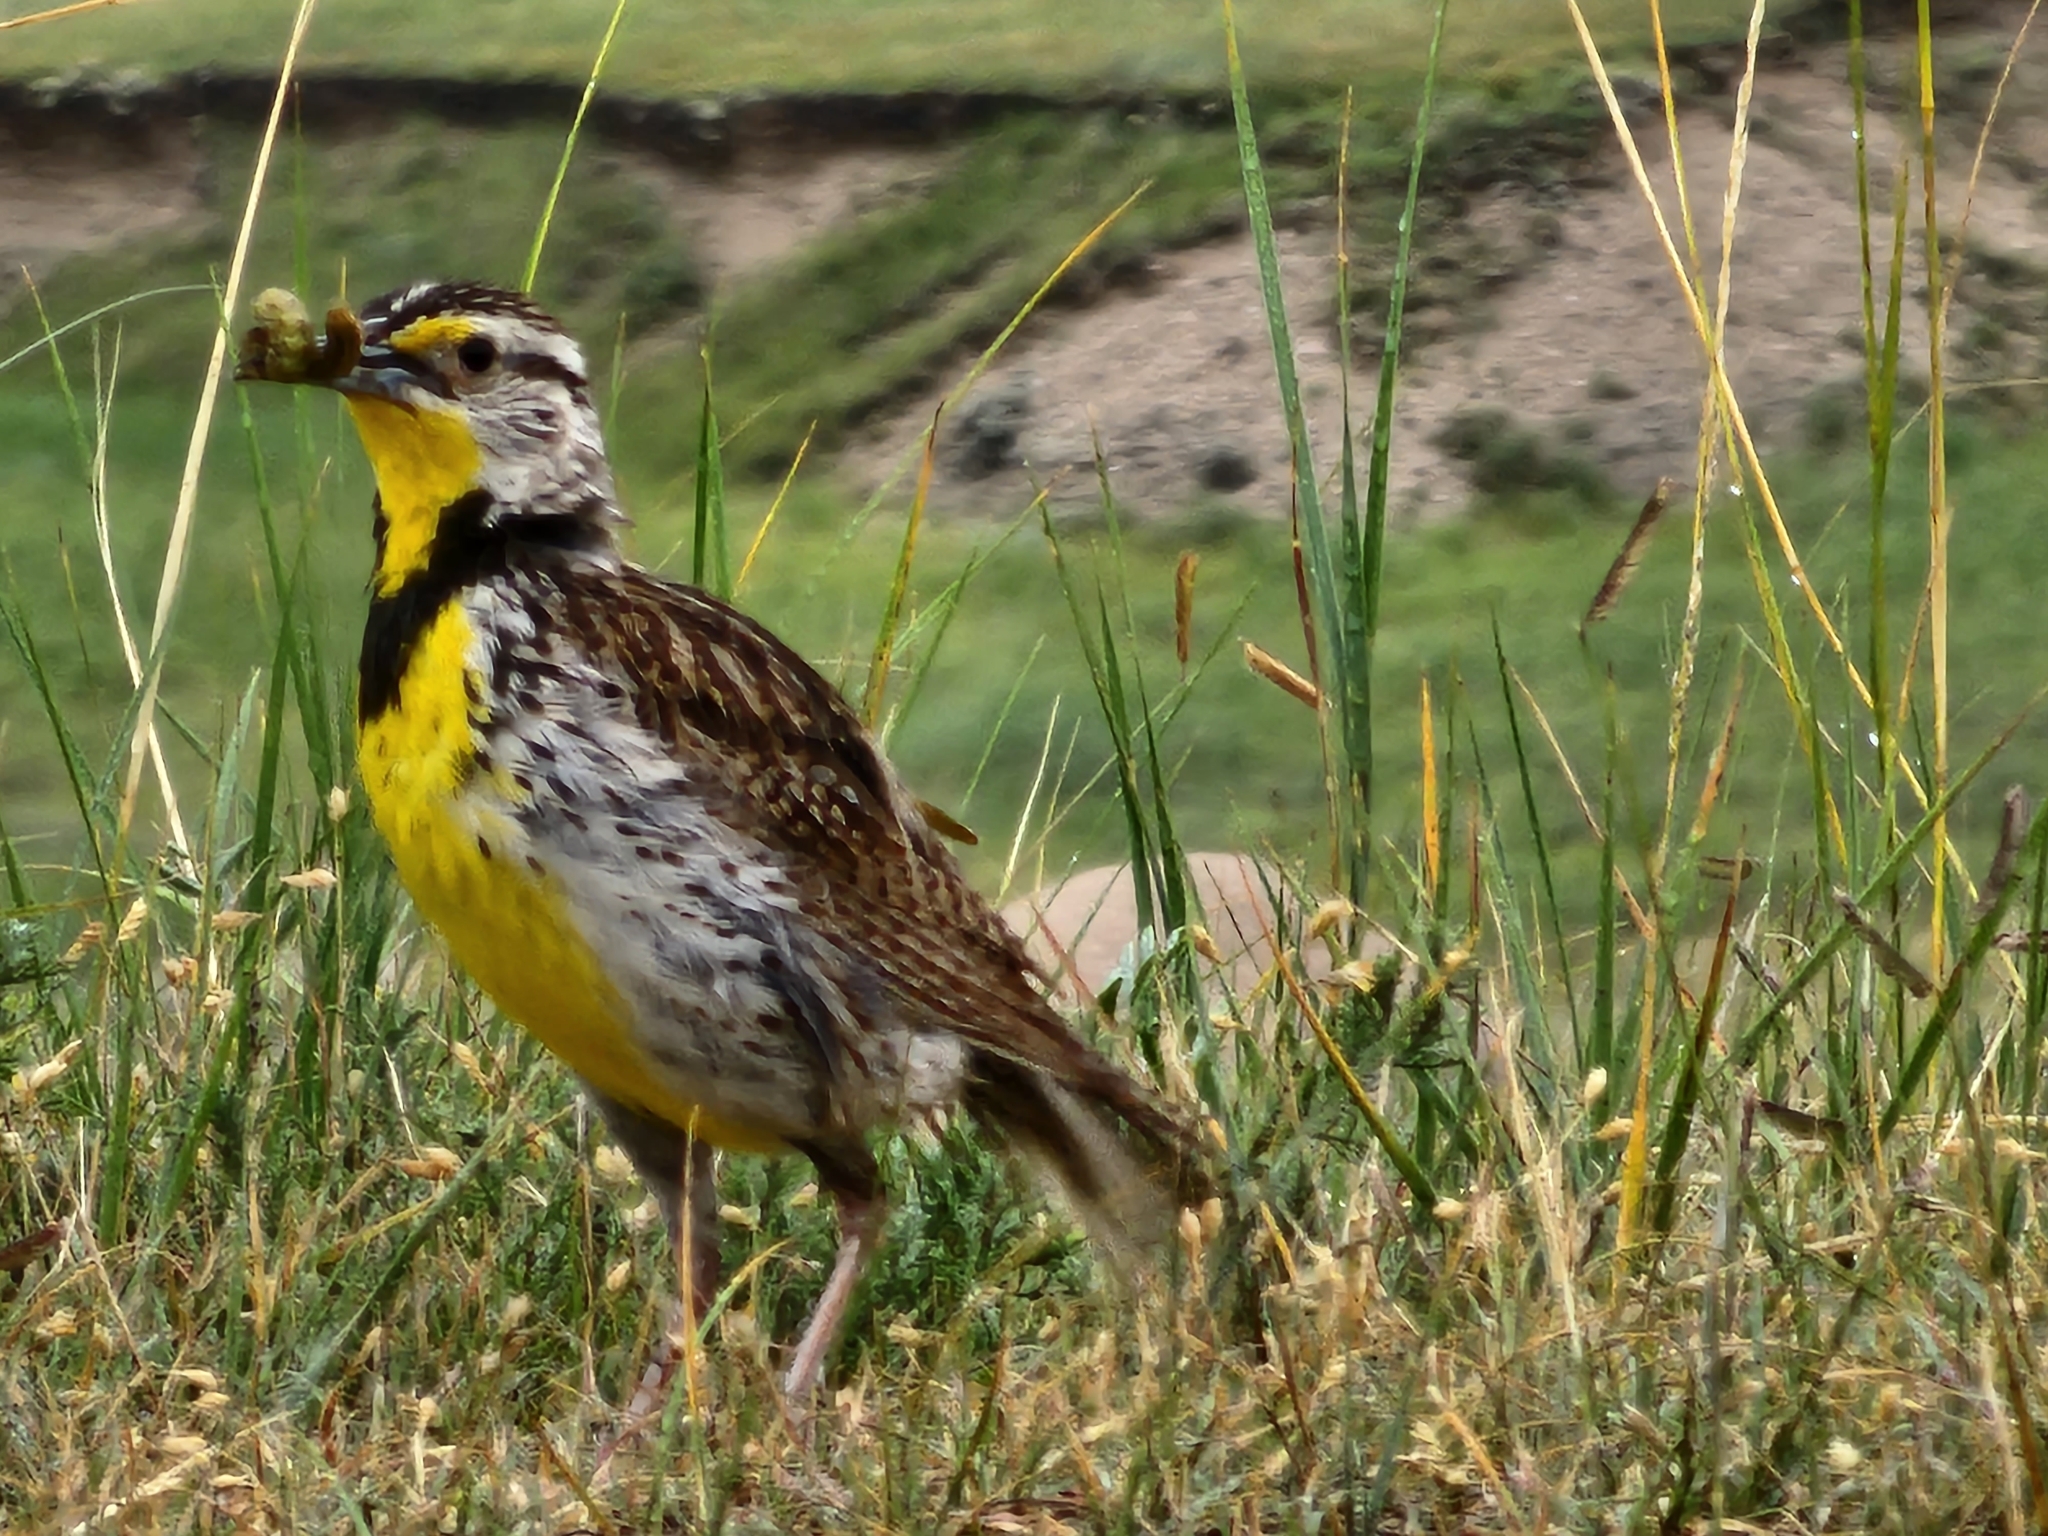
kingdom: Animalia
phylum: Chordata
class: Aves
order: Passeriformes
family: Icteridae
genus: Sturnella
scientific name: Sturnella neglecta
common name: Western meadowlark
